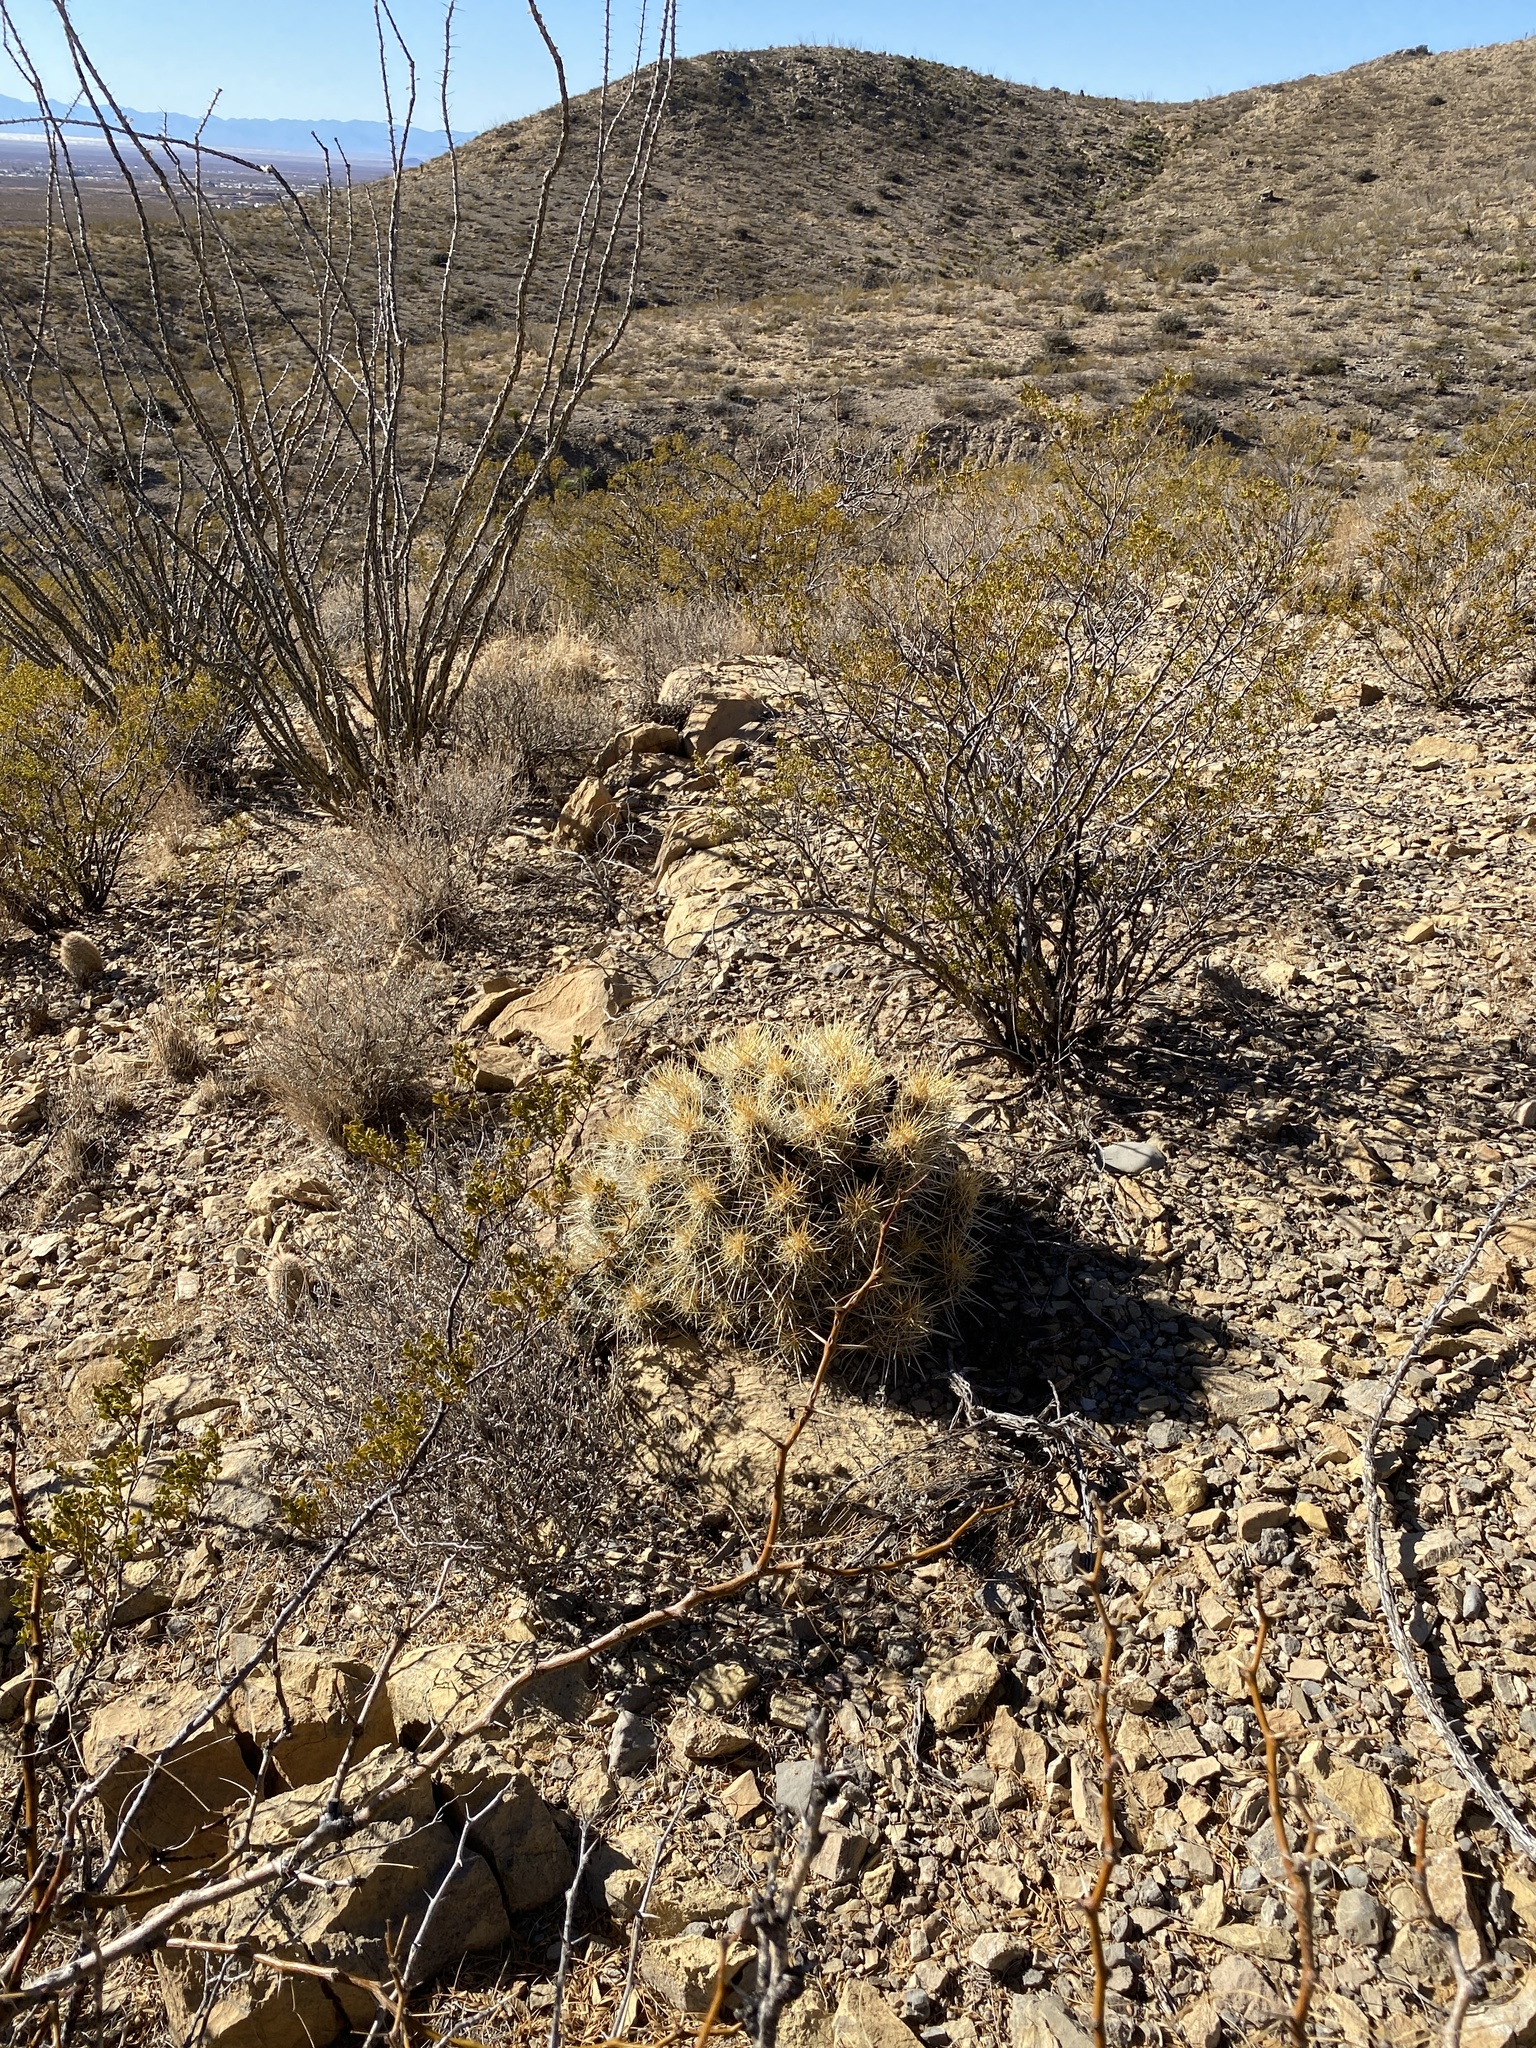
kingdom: Plantae
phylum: Tracheophyta
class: Magnoliopsida
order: Caryophyllales
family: Cactaceae
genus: Echinocereus
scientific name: Echinocereus stramineus
